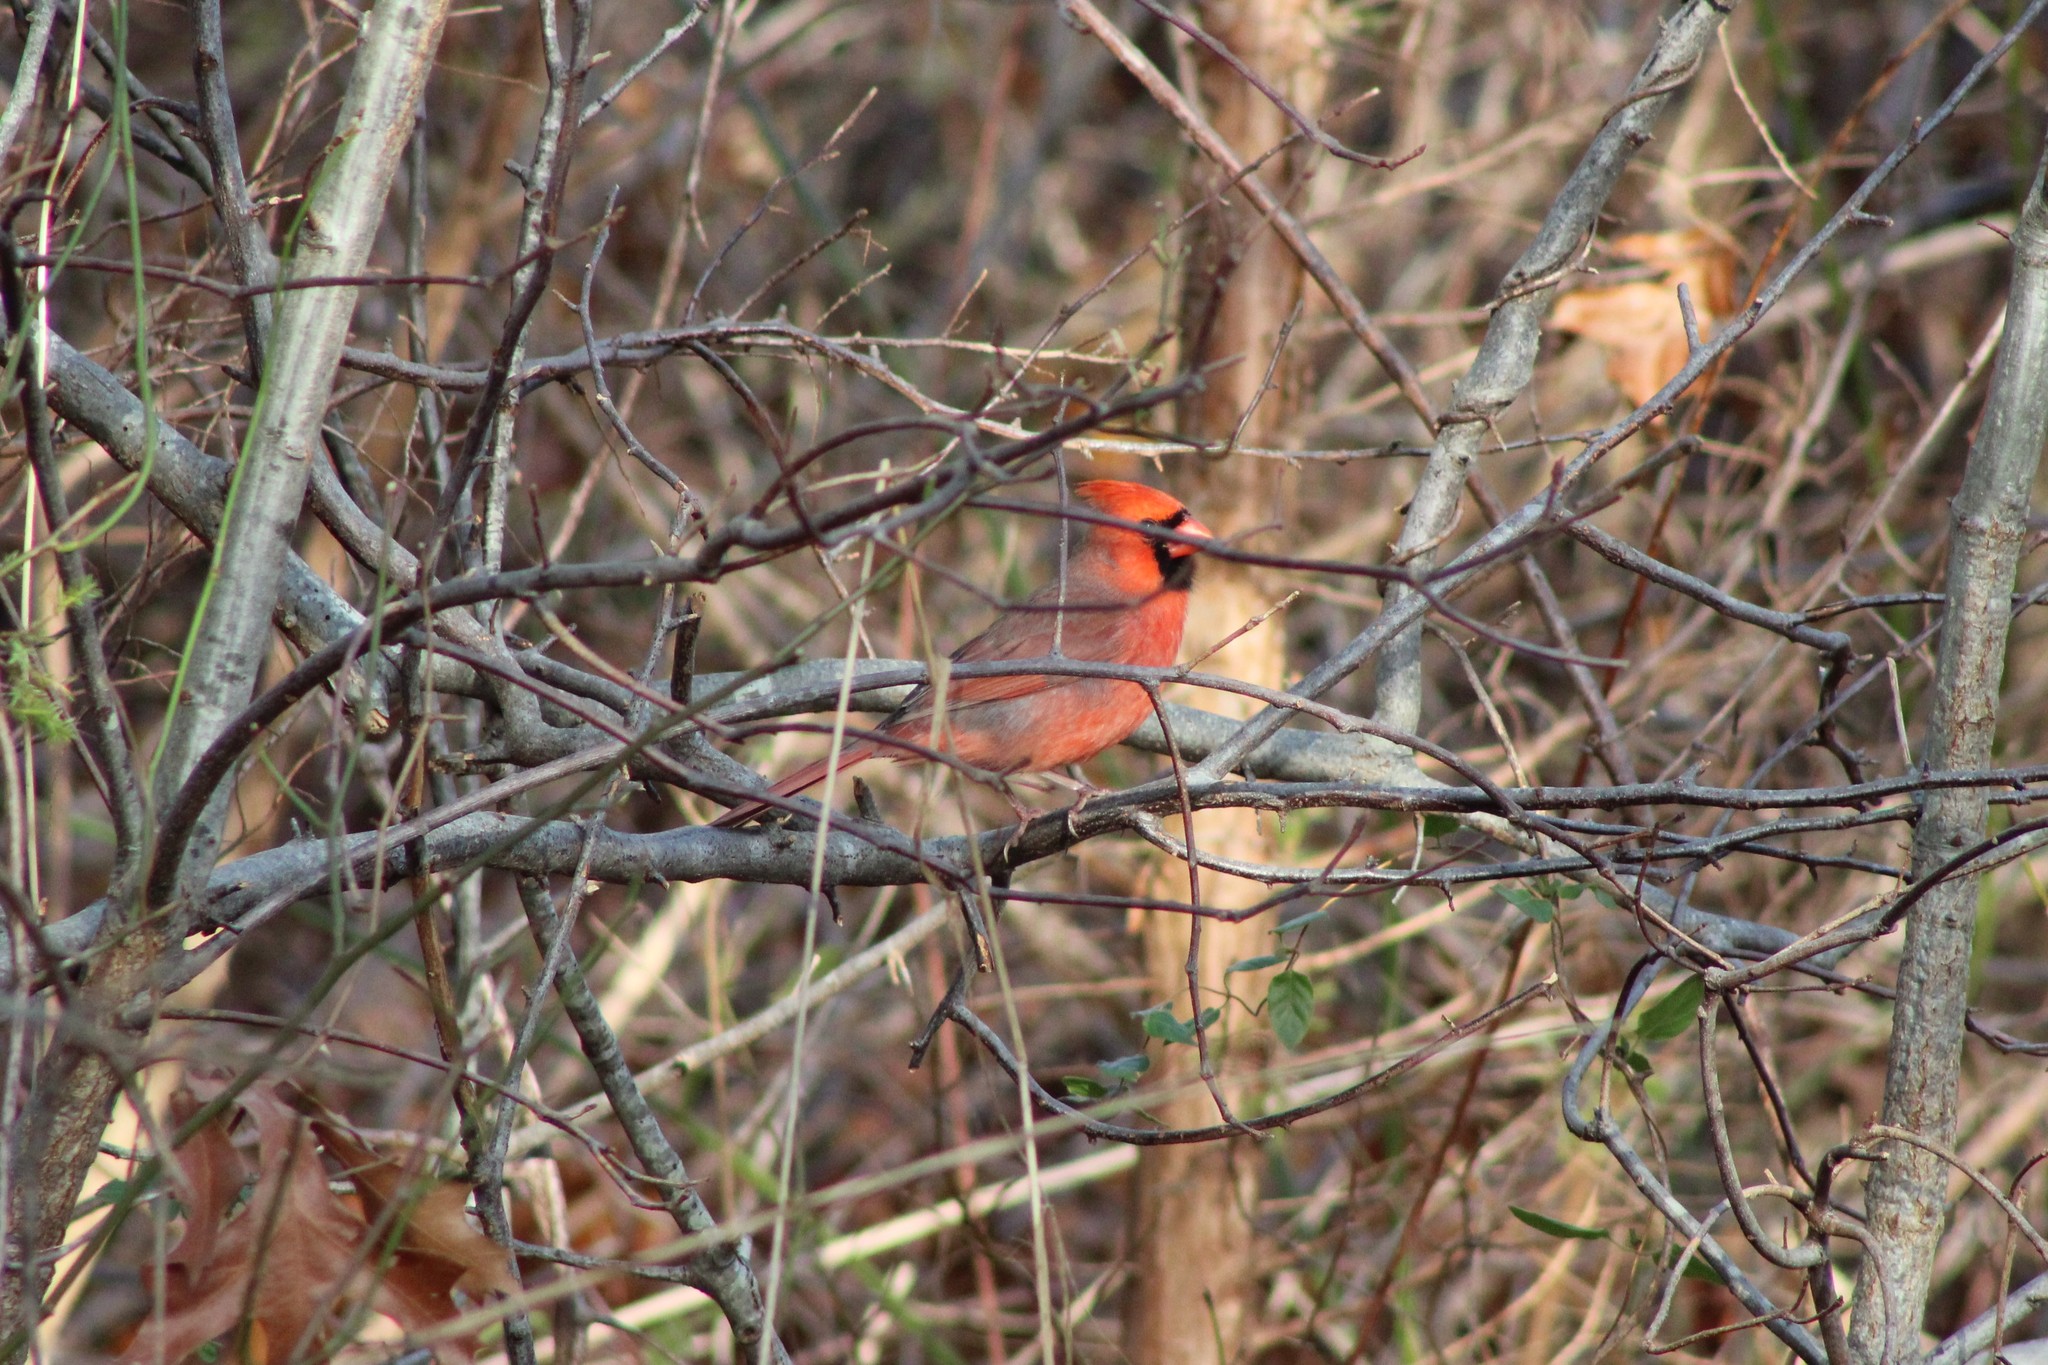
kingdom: Animalia
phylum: Chordata
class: Aves
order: Passeriformes
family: Cardinalidae
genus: Cardinalis
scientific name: Cardinalis cardinalis
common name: Northern cardinal
